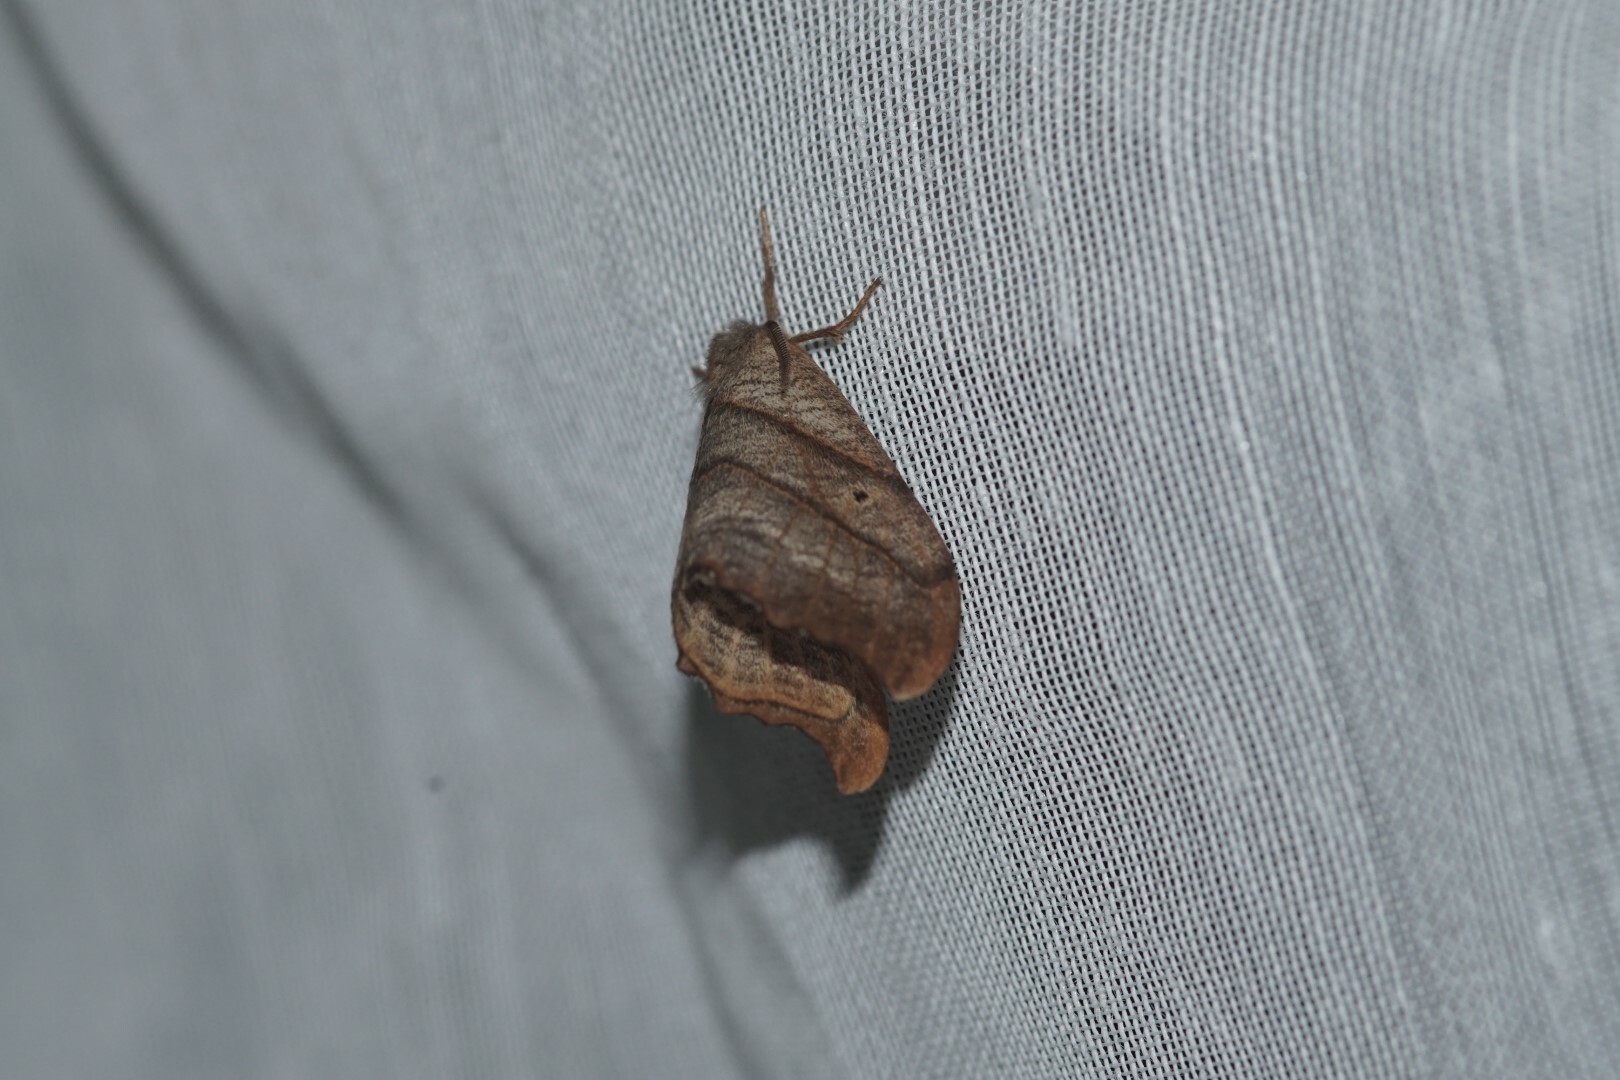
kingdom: Animalia
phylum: Arthropoda
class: Insecta
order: Lepidoptera
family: Drepanidae
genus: Falcaria
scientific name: Falcaria lacertinaria
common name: Scalloped hook-tip
